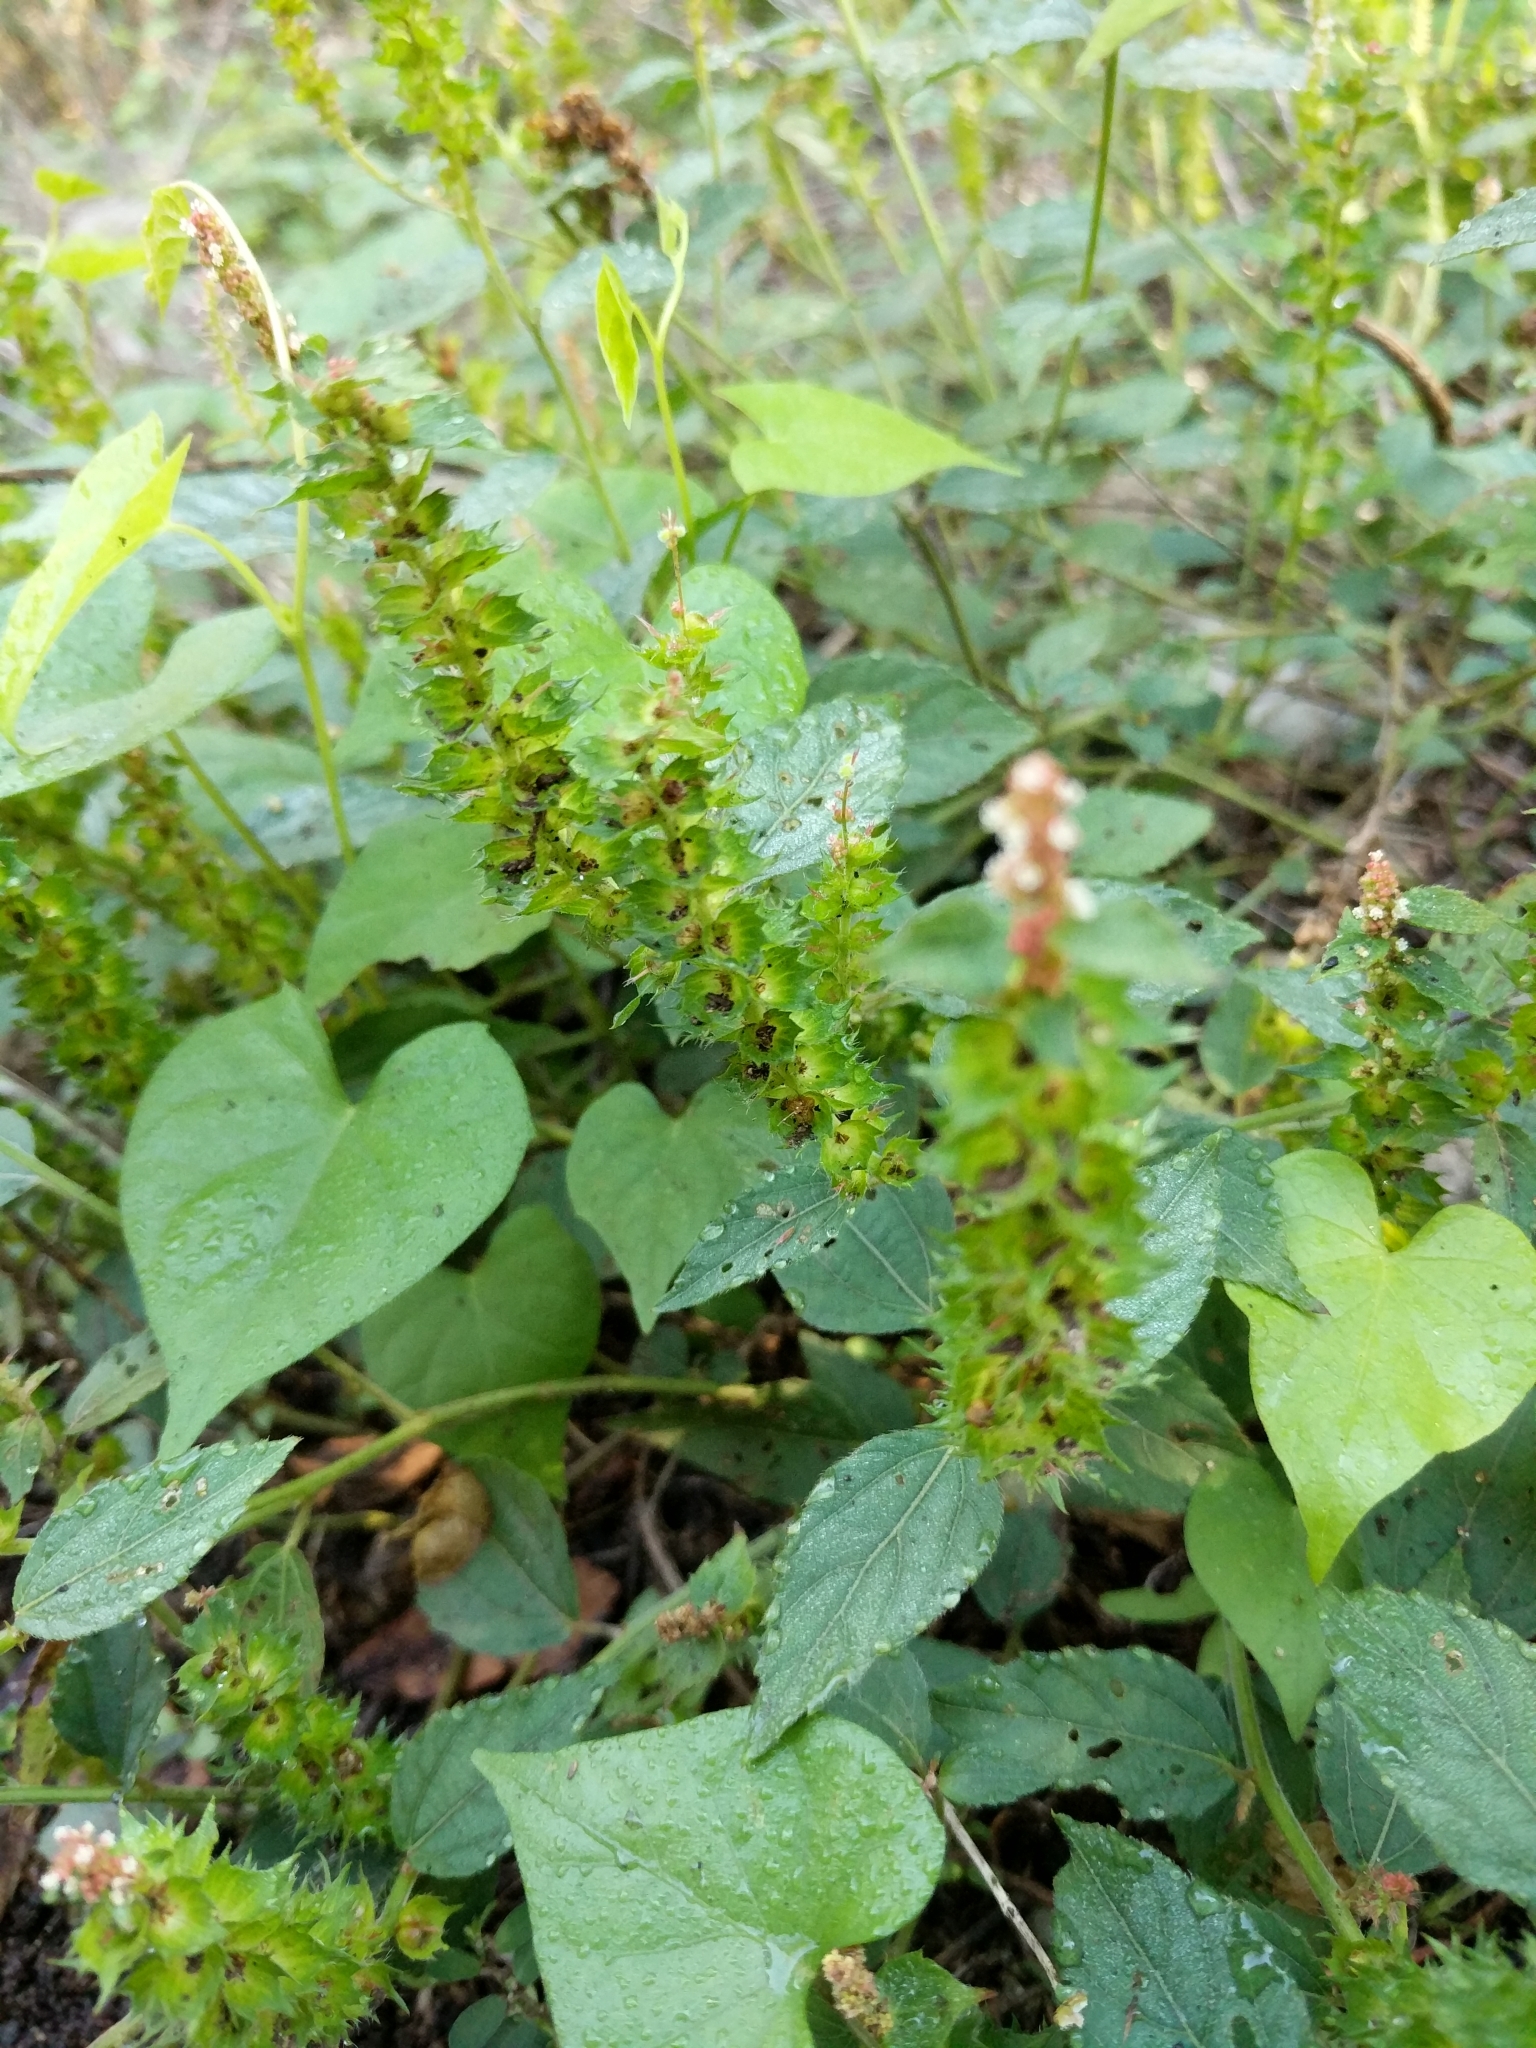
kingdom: Plantae
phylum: Tracheophyta
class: Magnoliopsida
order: Malpighiales
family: Euphorbiaceae
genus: Acalypha
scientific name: Acalypha phleoides
